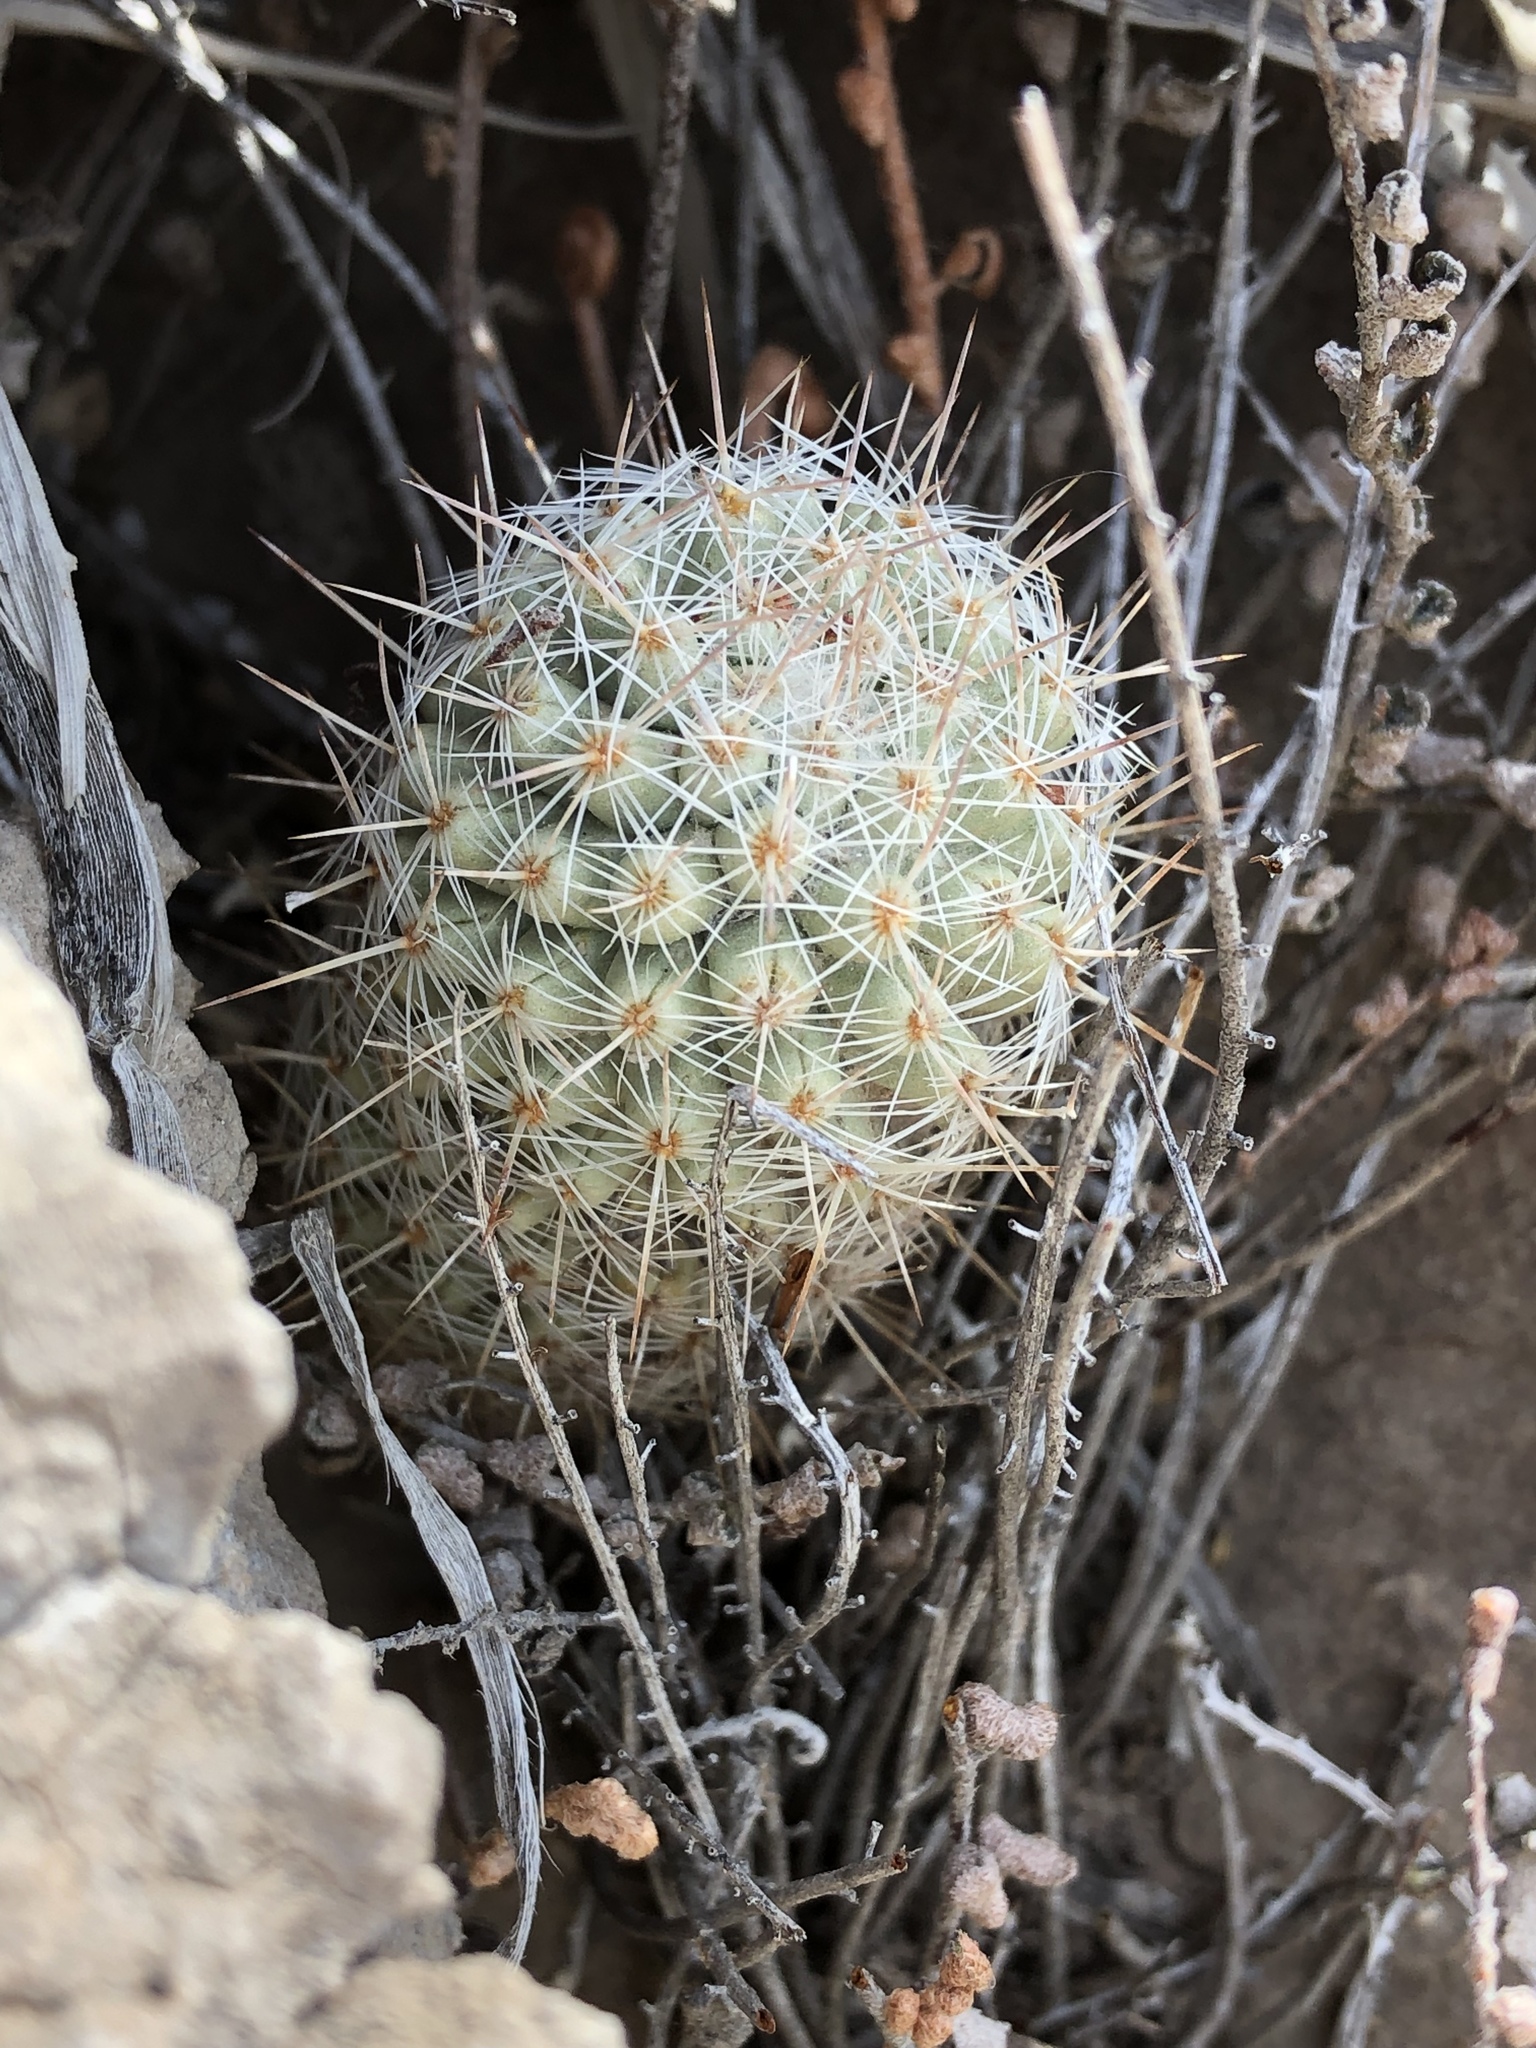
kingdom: Plantae
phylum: Tracheophyta
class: Magnoliopsida
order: Caryophyllales
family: Cactaceae
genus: Pelecyphora
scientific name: Pelecyphora tuberculosa
